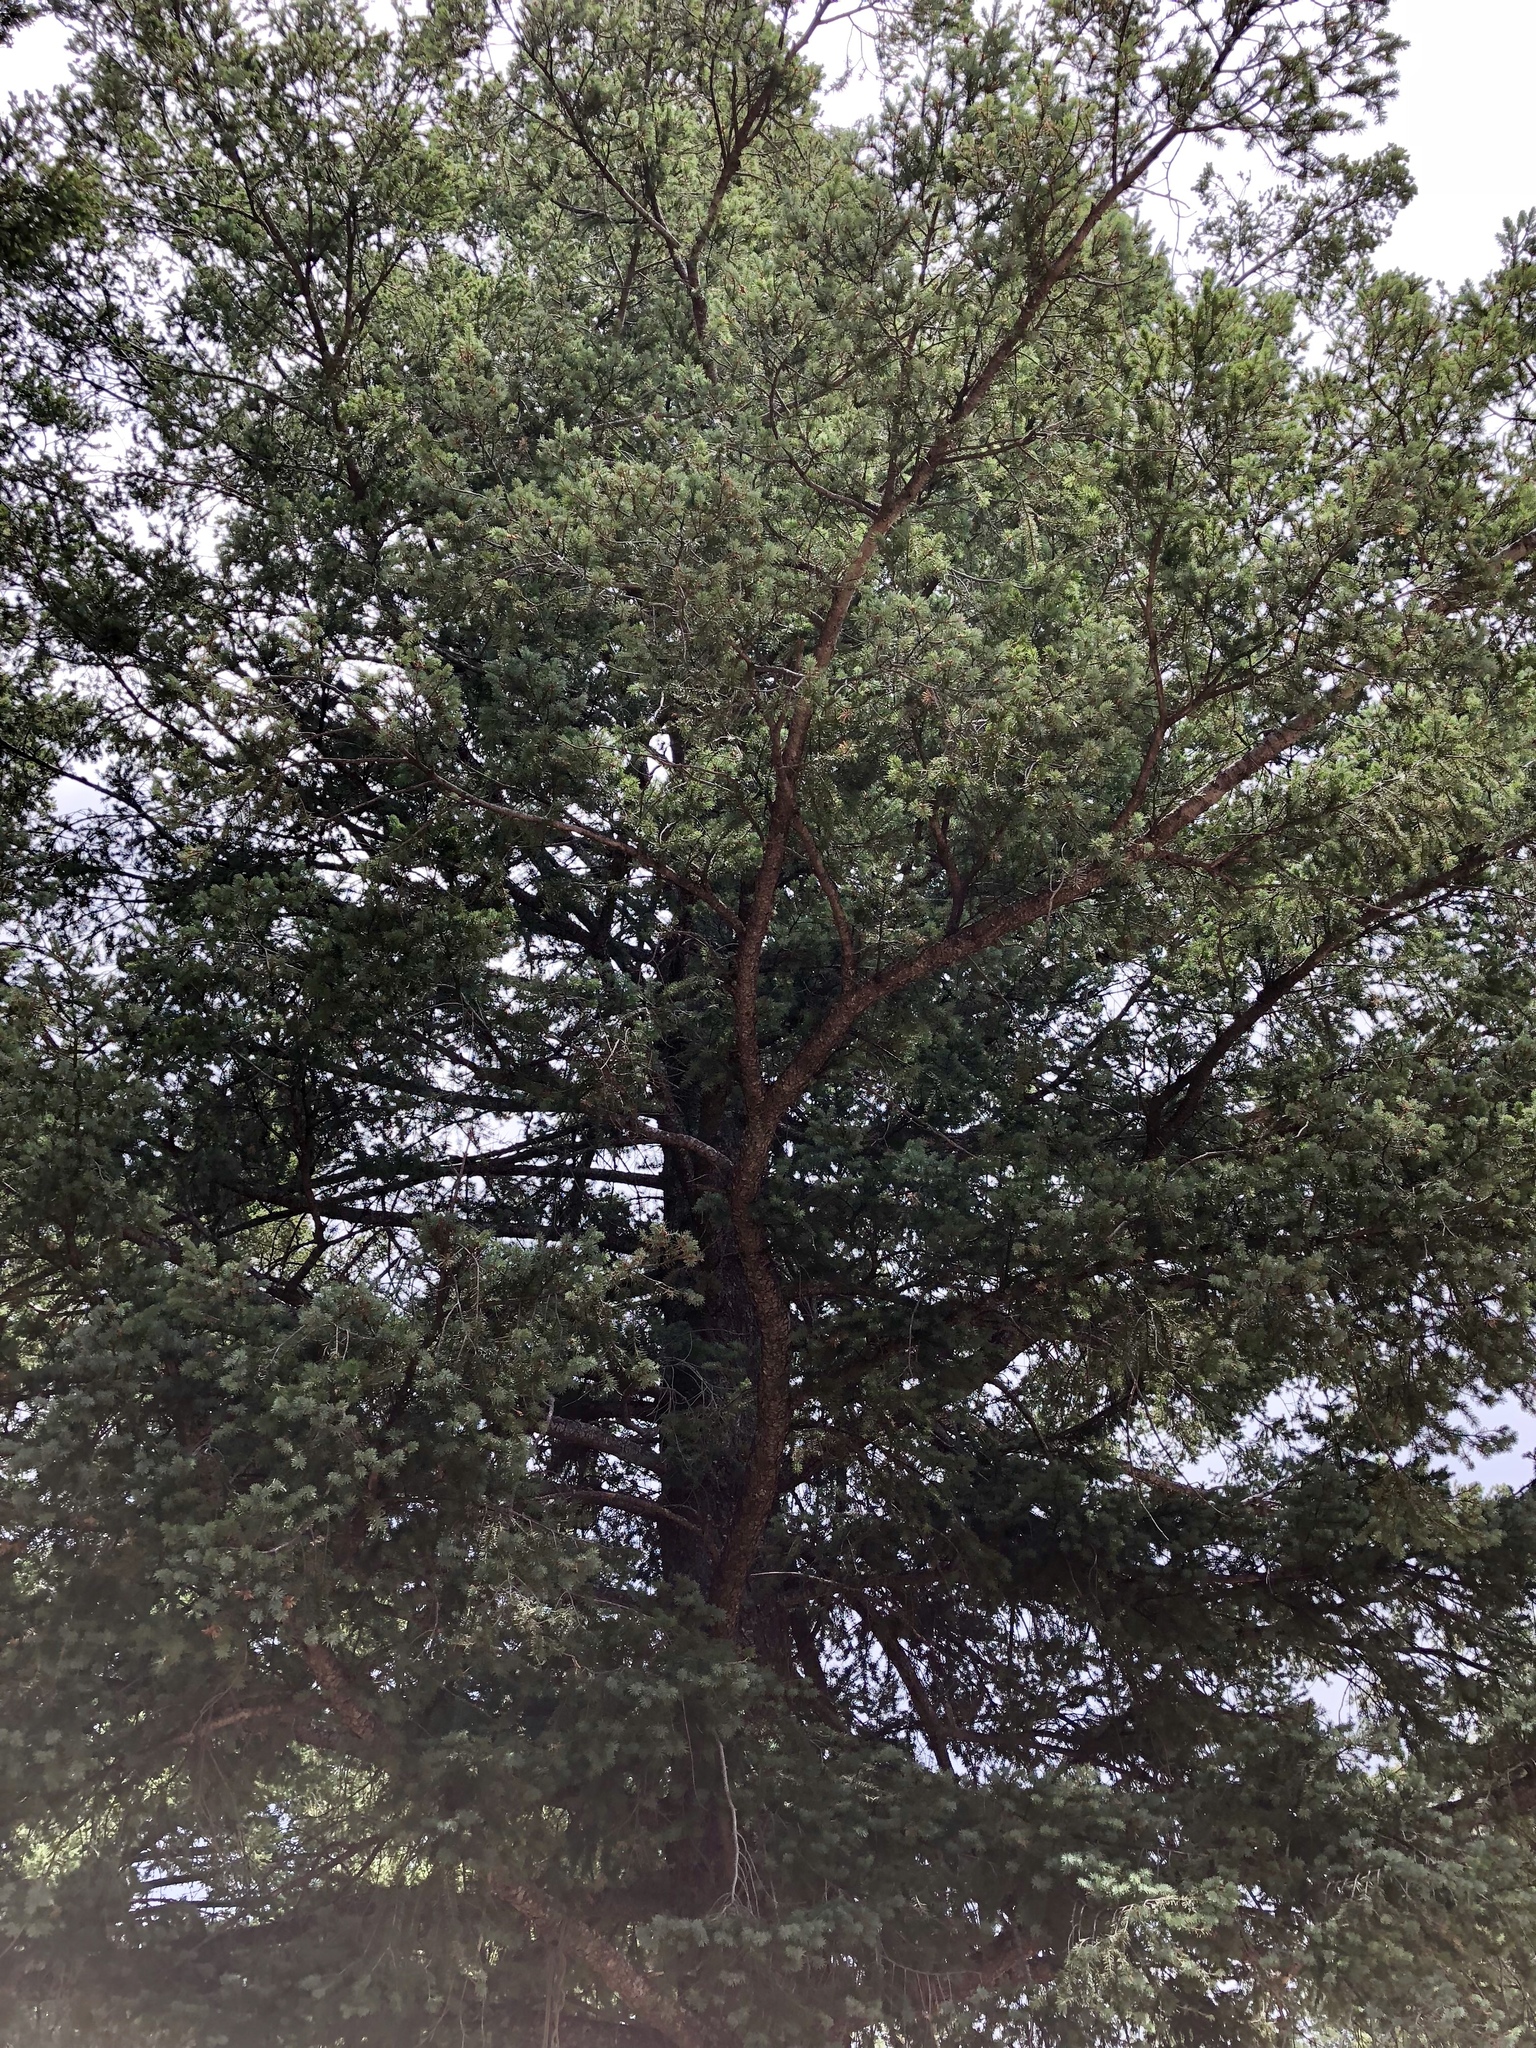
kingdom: Plantae
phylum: Tracheophyta
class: Pinopsida
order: Pinales
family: Pinaceae
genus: Pseudotsuga
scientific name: Pseudotsuga menziesii
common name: Douglas fir
